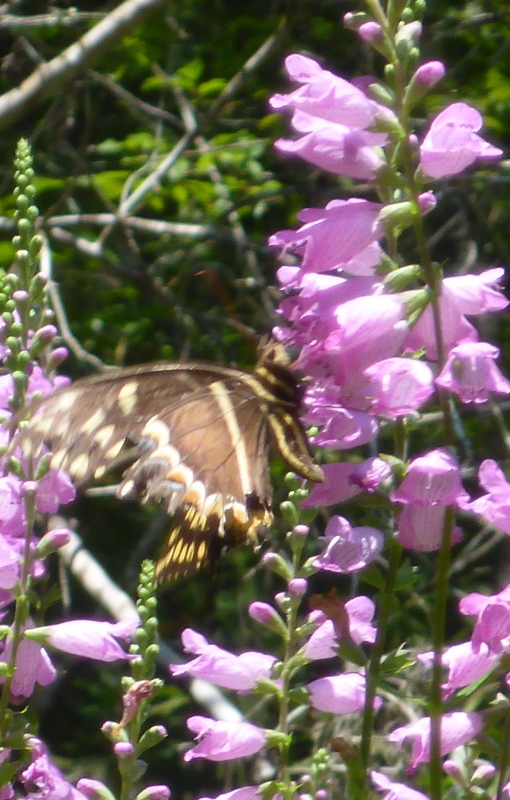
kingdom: Animalia
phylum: Arthropoda
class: Insecta
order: Lepidoptera
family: Papilionidae
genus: Papilio
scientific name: Papilio palamedes
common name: Palamedes swallowtail
